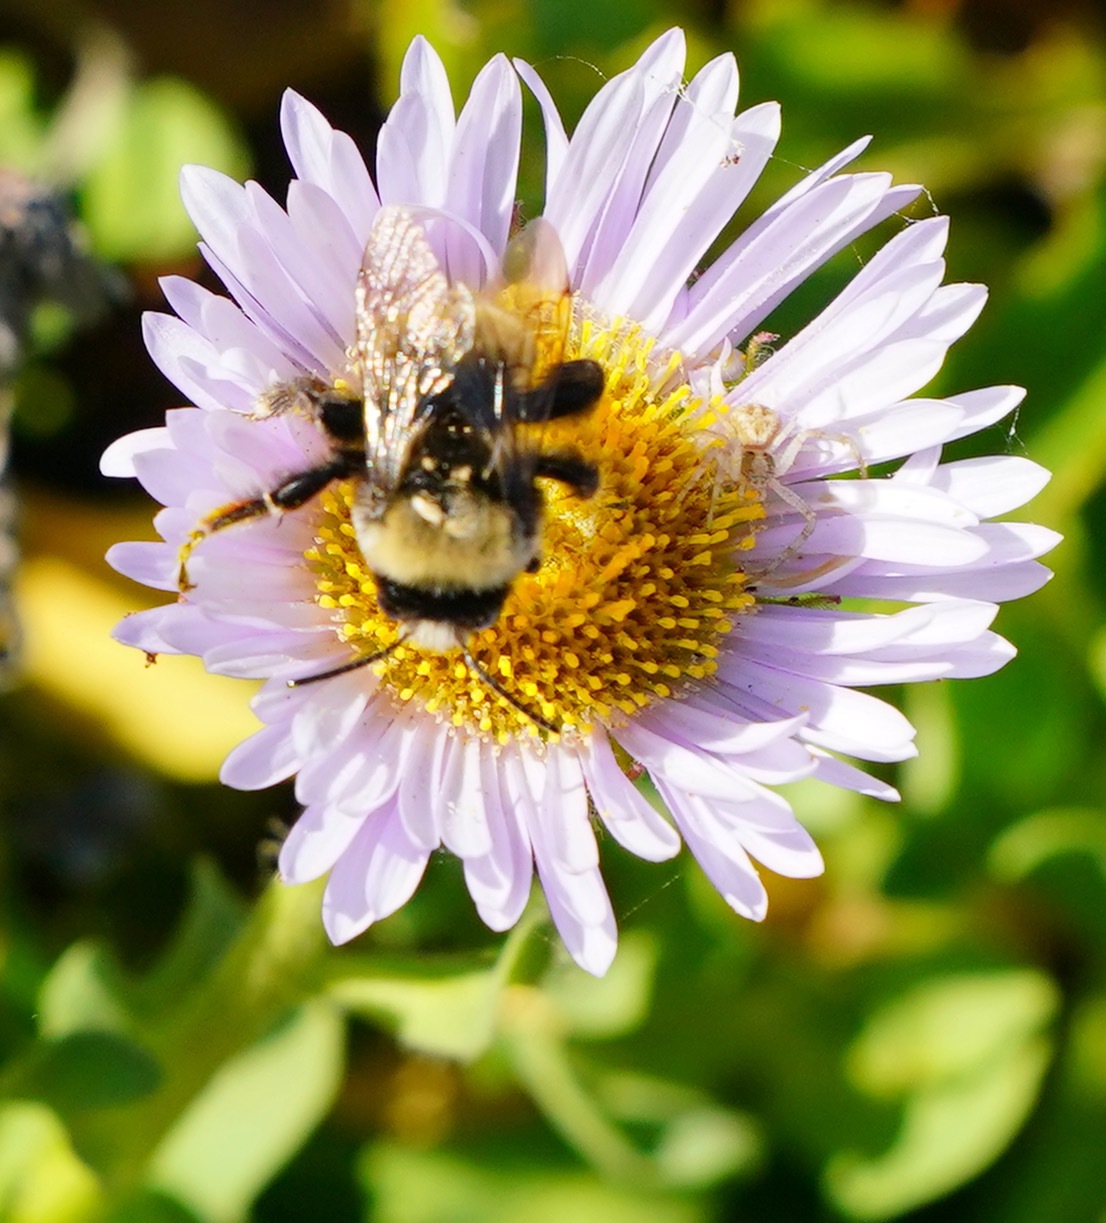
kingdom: Animalia
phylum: Arthropoda
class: Insecta
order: Hymenoptera
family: Apidae
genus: Anthophora
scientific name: Anthophora bomboides
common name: Bumble-bee-mimic digger bee
